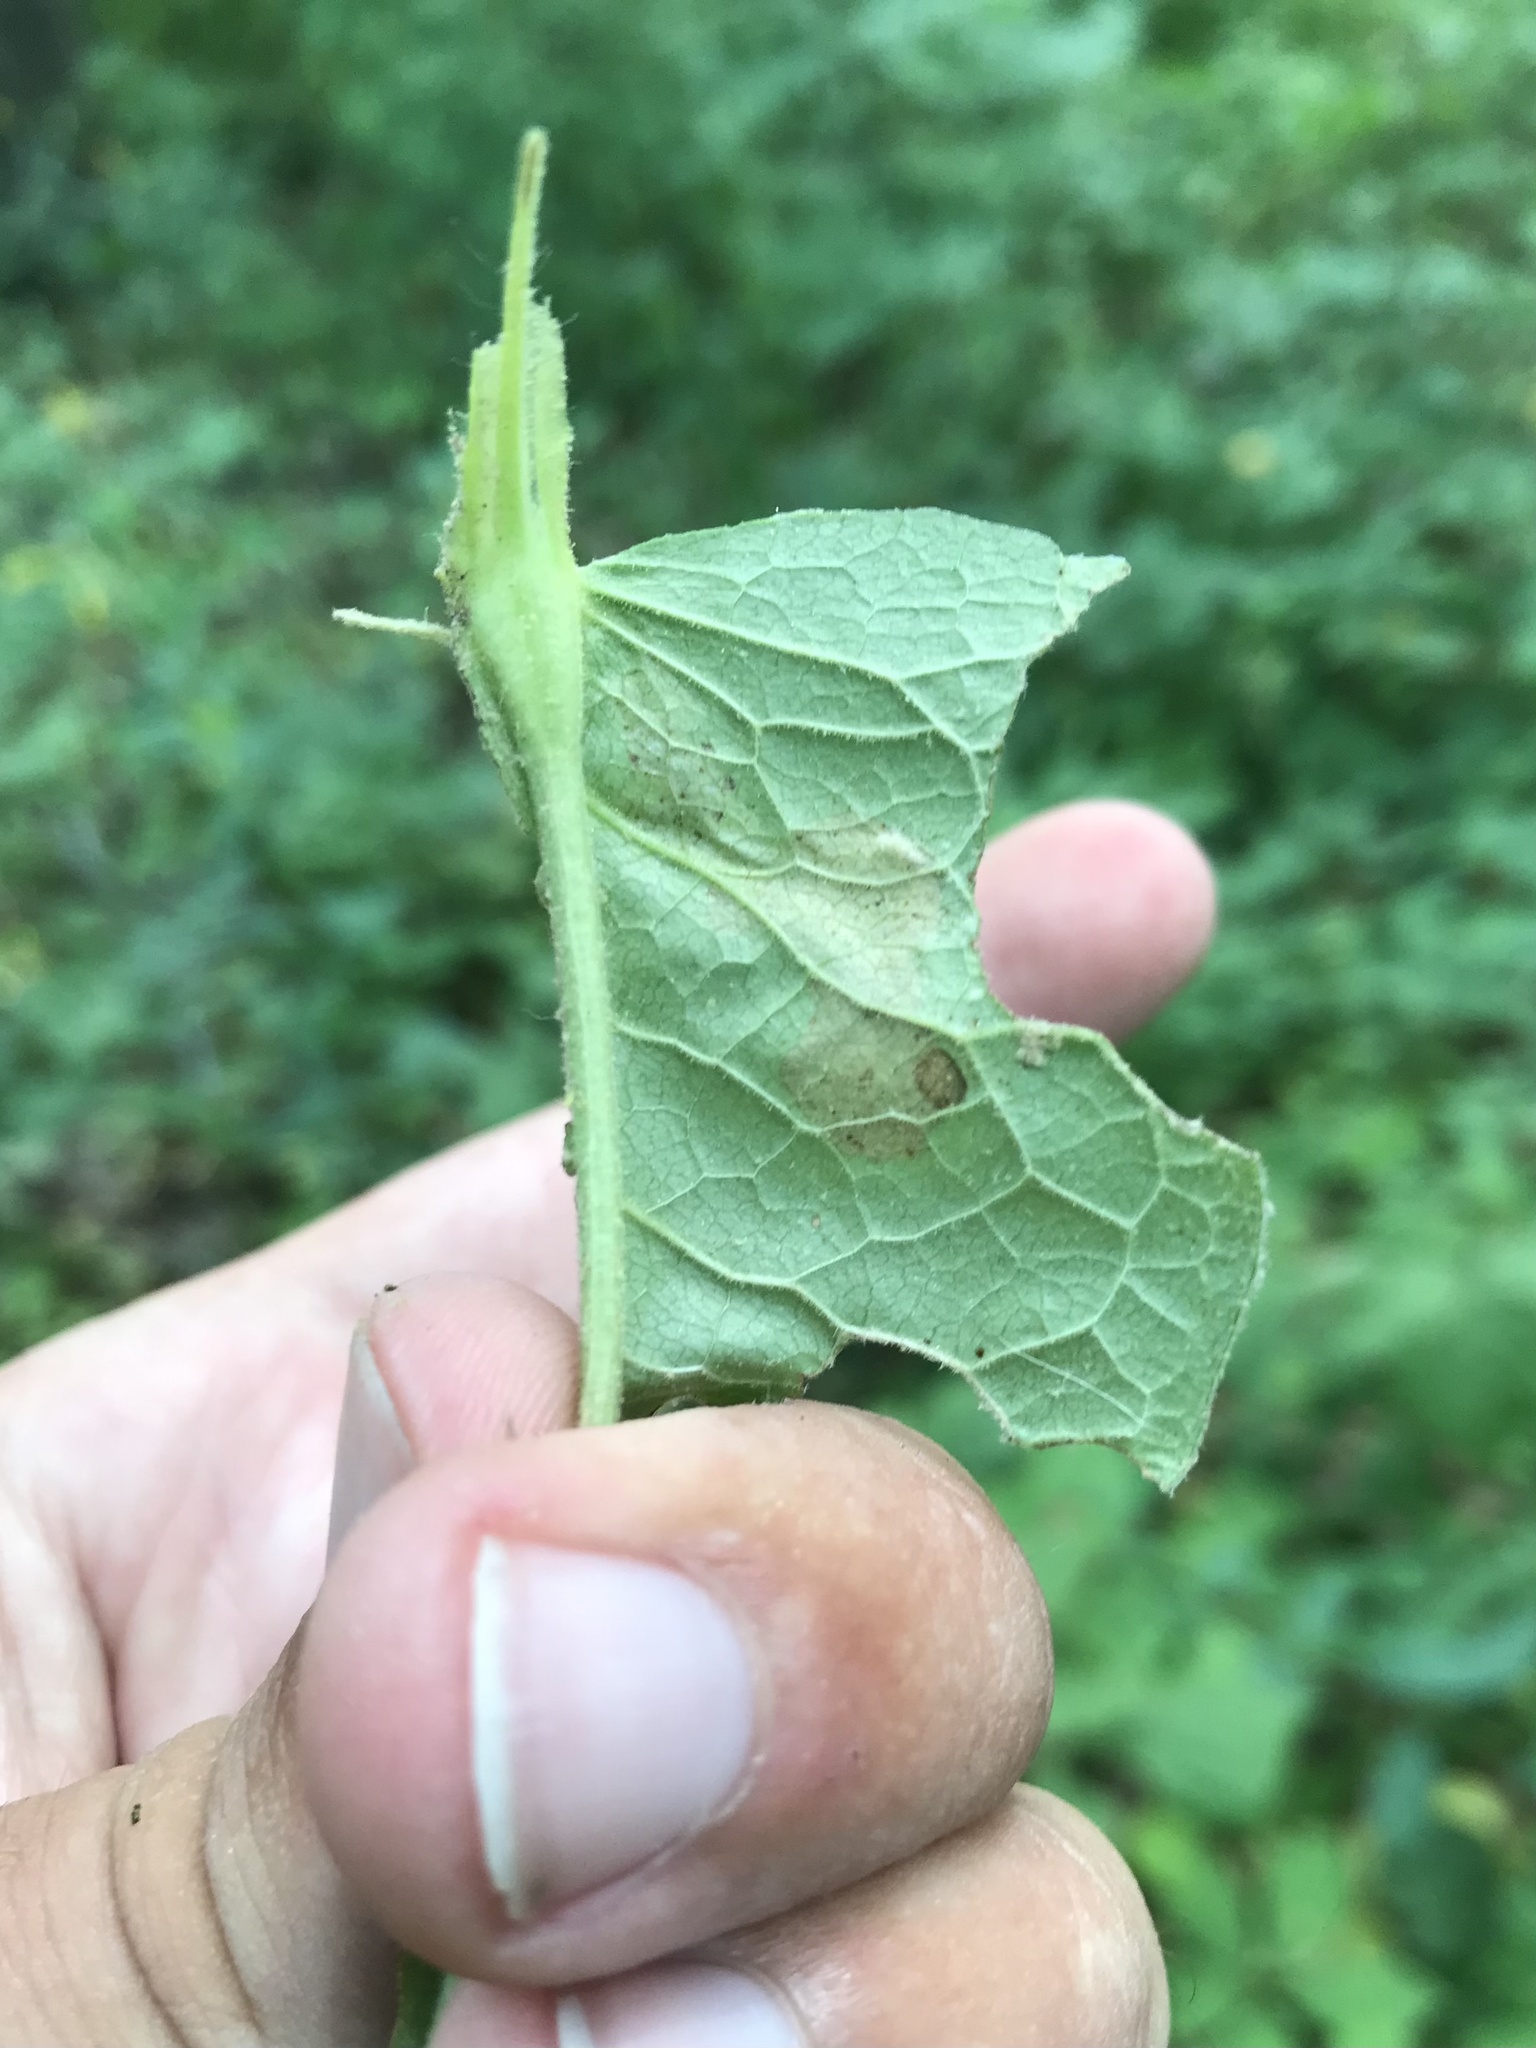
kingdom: Animalia
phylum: Arthropoda
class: Insecta
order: Diptera
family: Agromyzidae
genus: Aulagromyza
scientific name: Aulagromyza orbitalis
